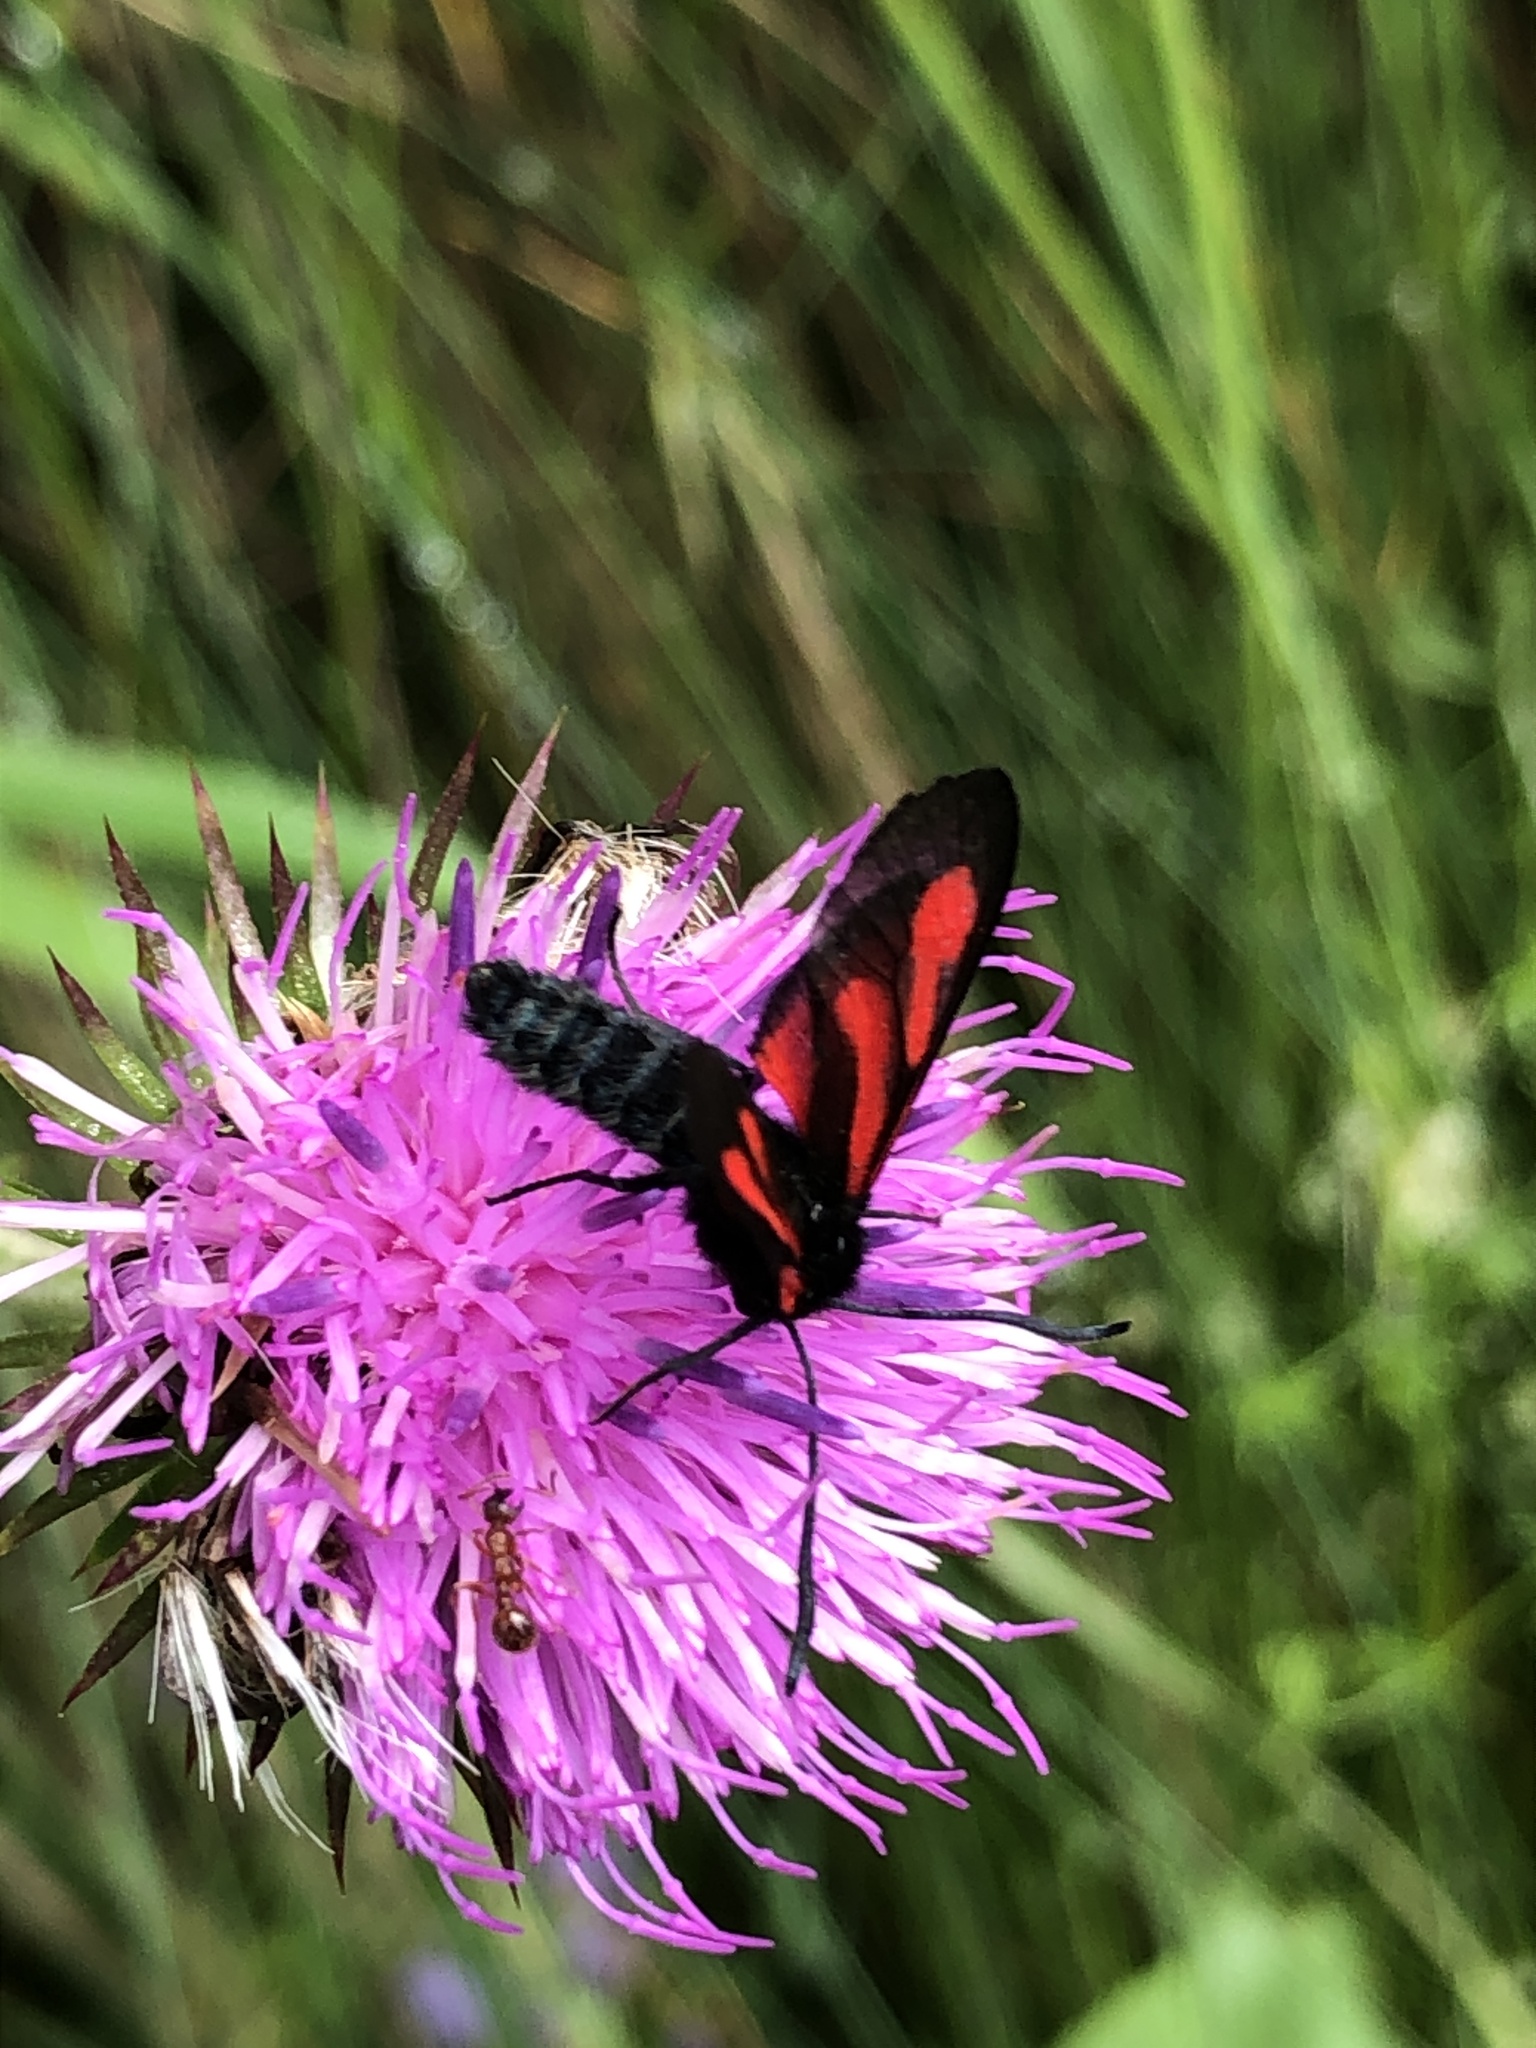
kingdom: Animalia
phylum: Arthropoda
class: Insecta
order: Lepidoptera
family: Zygaenidae
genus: Zygaena
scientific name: Zygaena osterodensis
